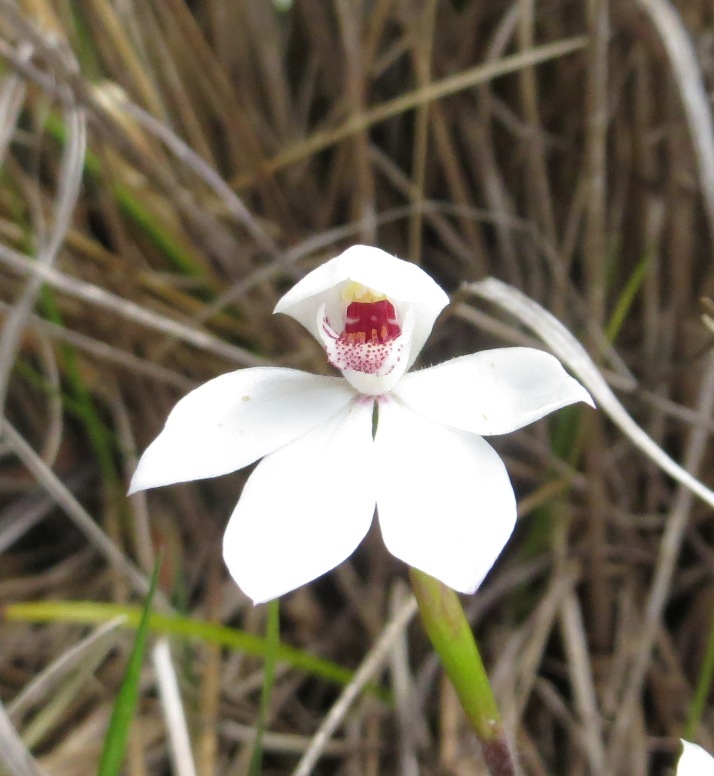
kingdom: Plantae
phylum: Tracheophyta
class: Liliopsida
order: Asparagales
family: Orchidaceae
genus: Caladenia
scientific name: Caladenia lyallii
